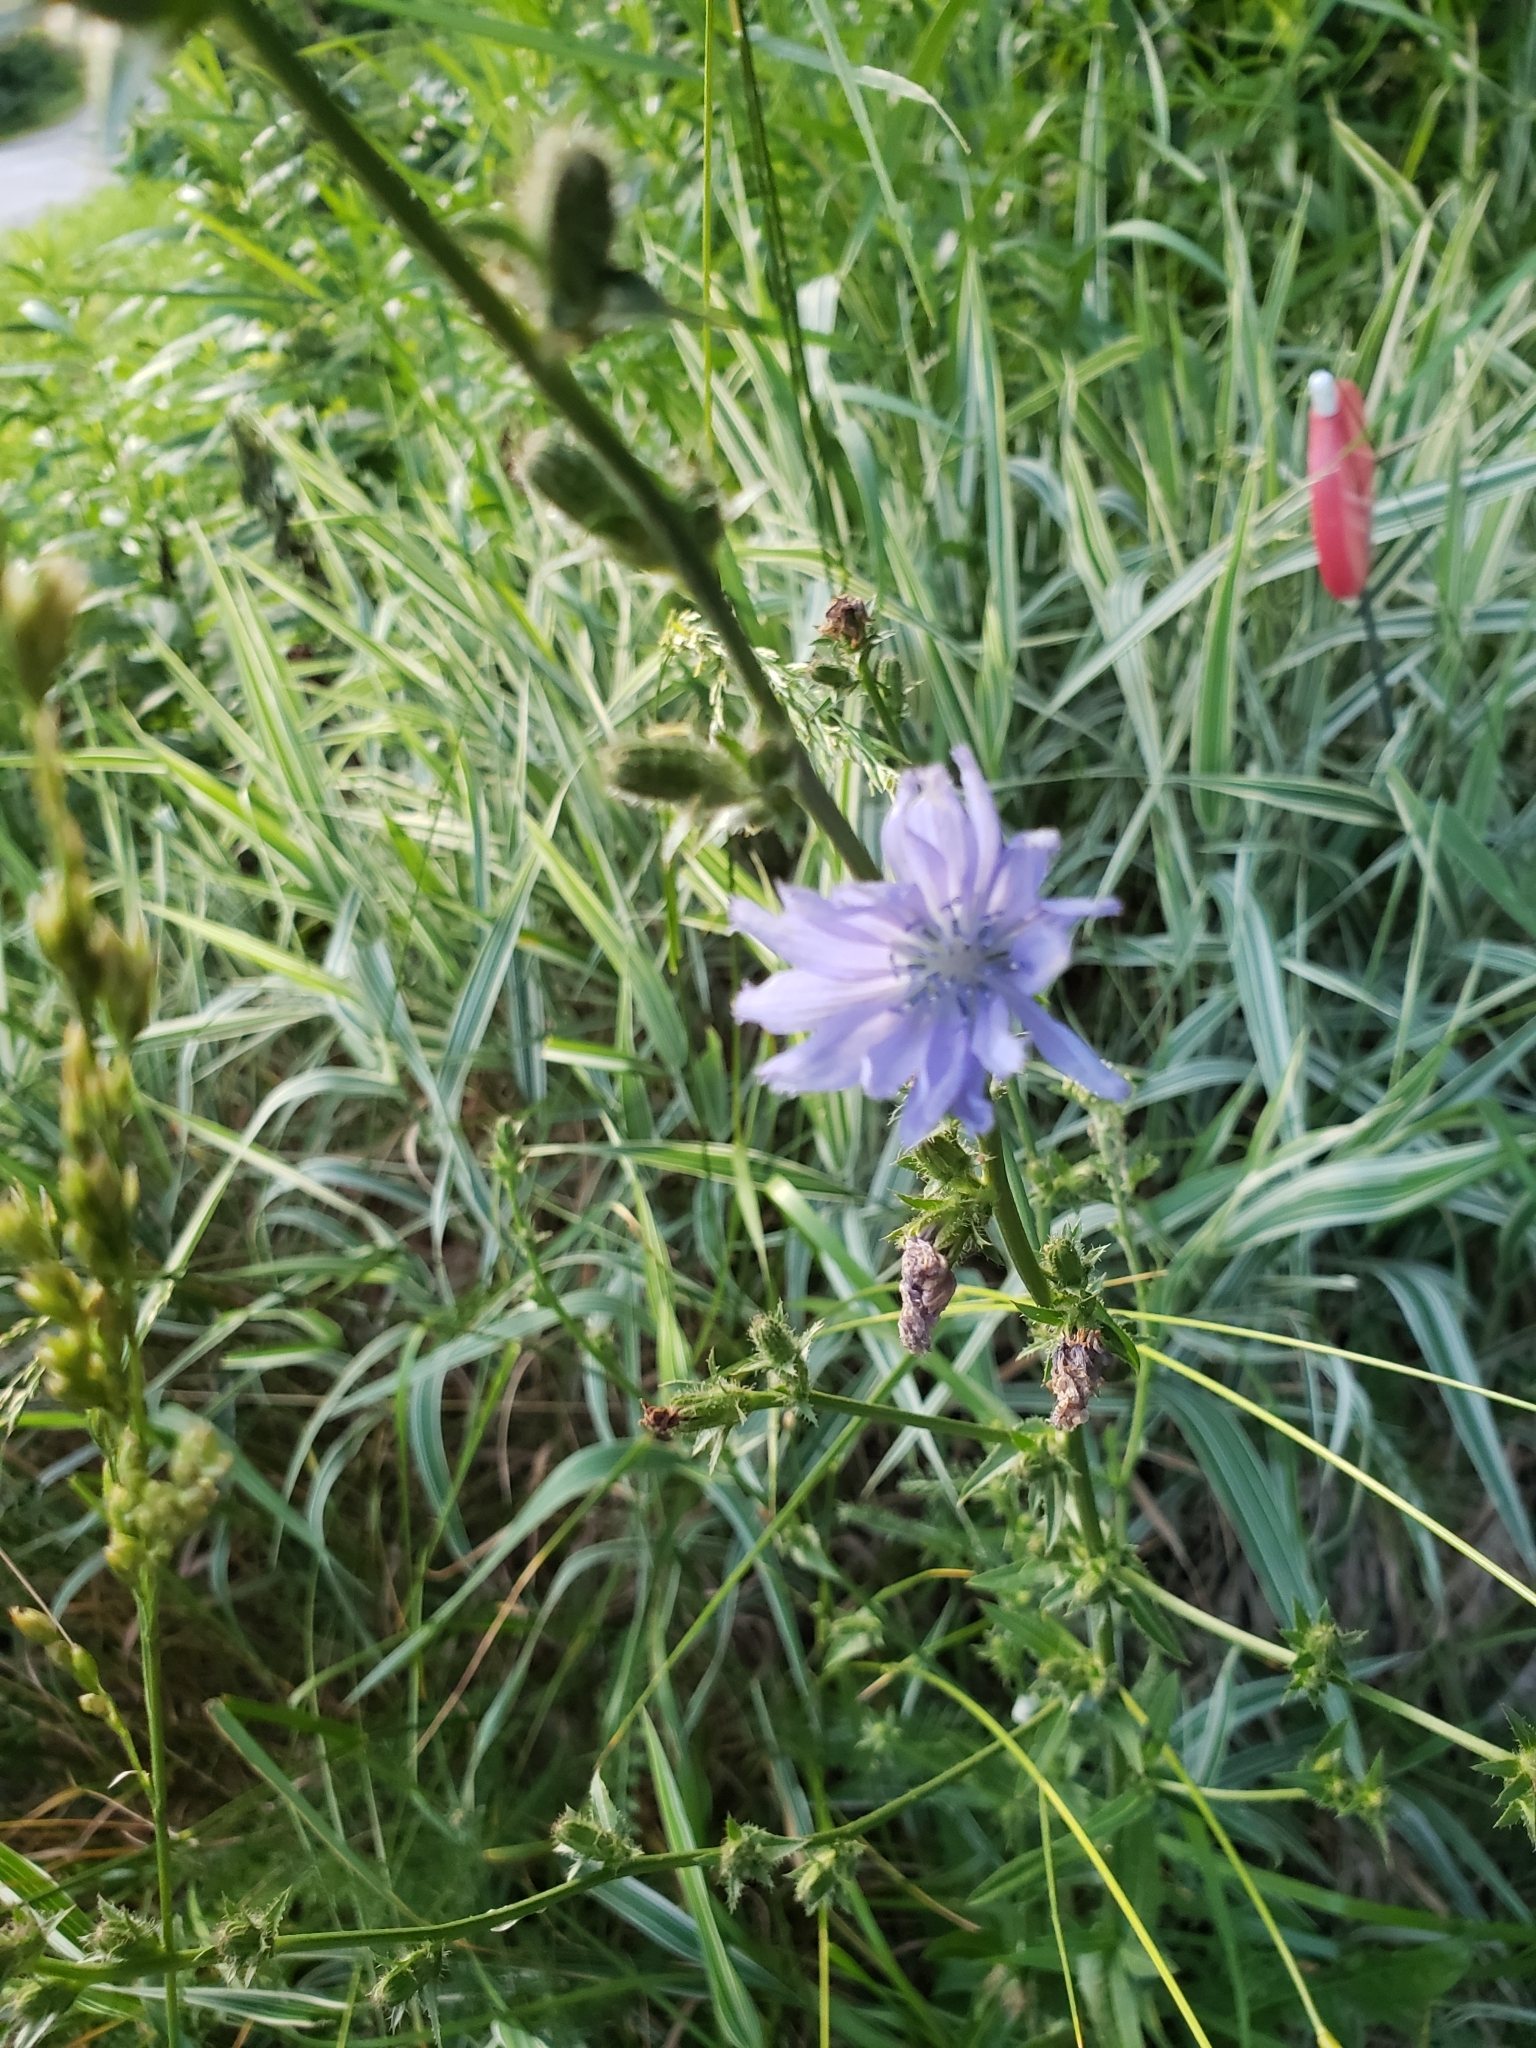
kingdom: Plantae
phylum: Tracheophyta
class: Magnoliopsida
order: Asterales
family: Asteraceae
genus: Cichorium
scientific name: Cichorium intybus
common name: Chicory
